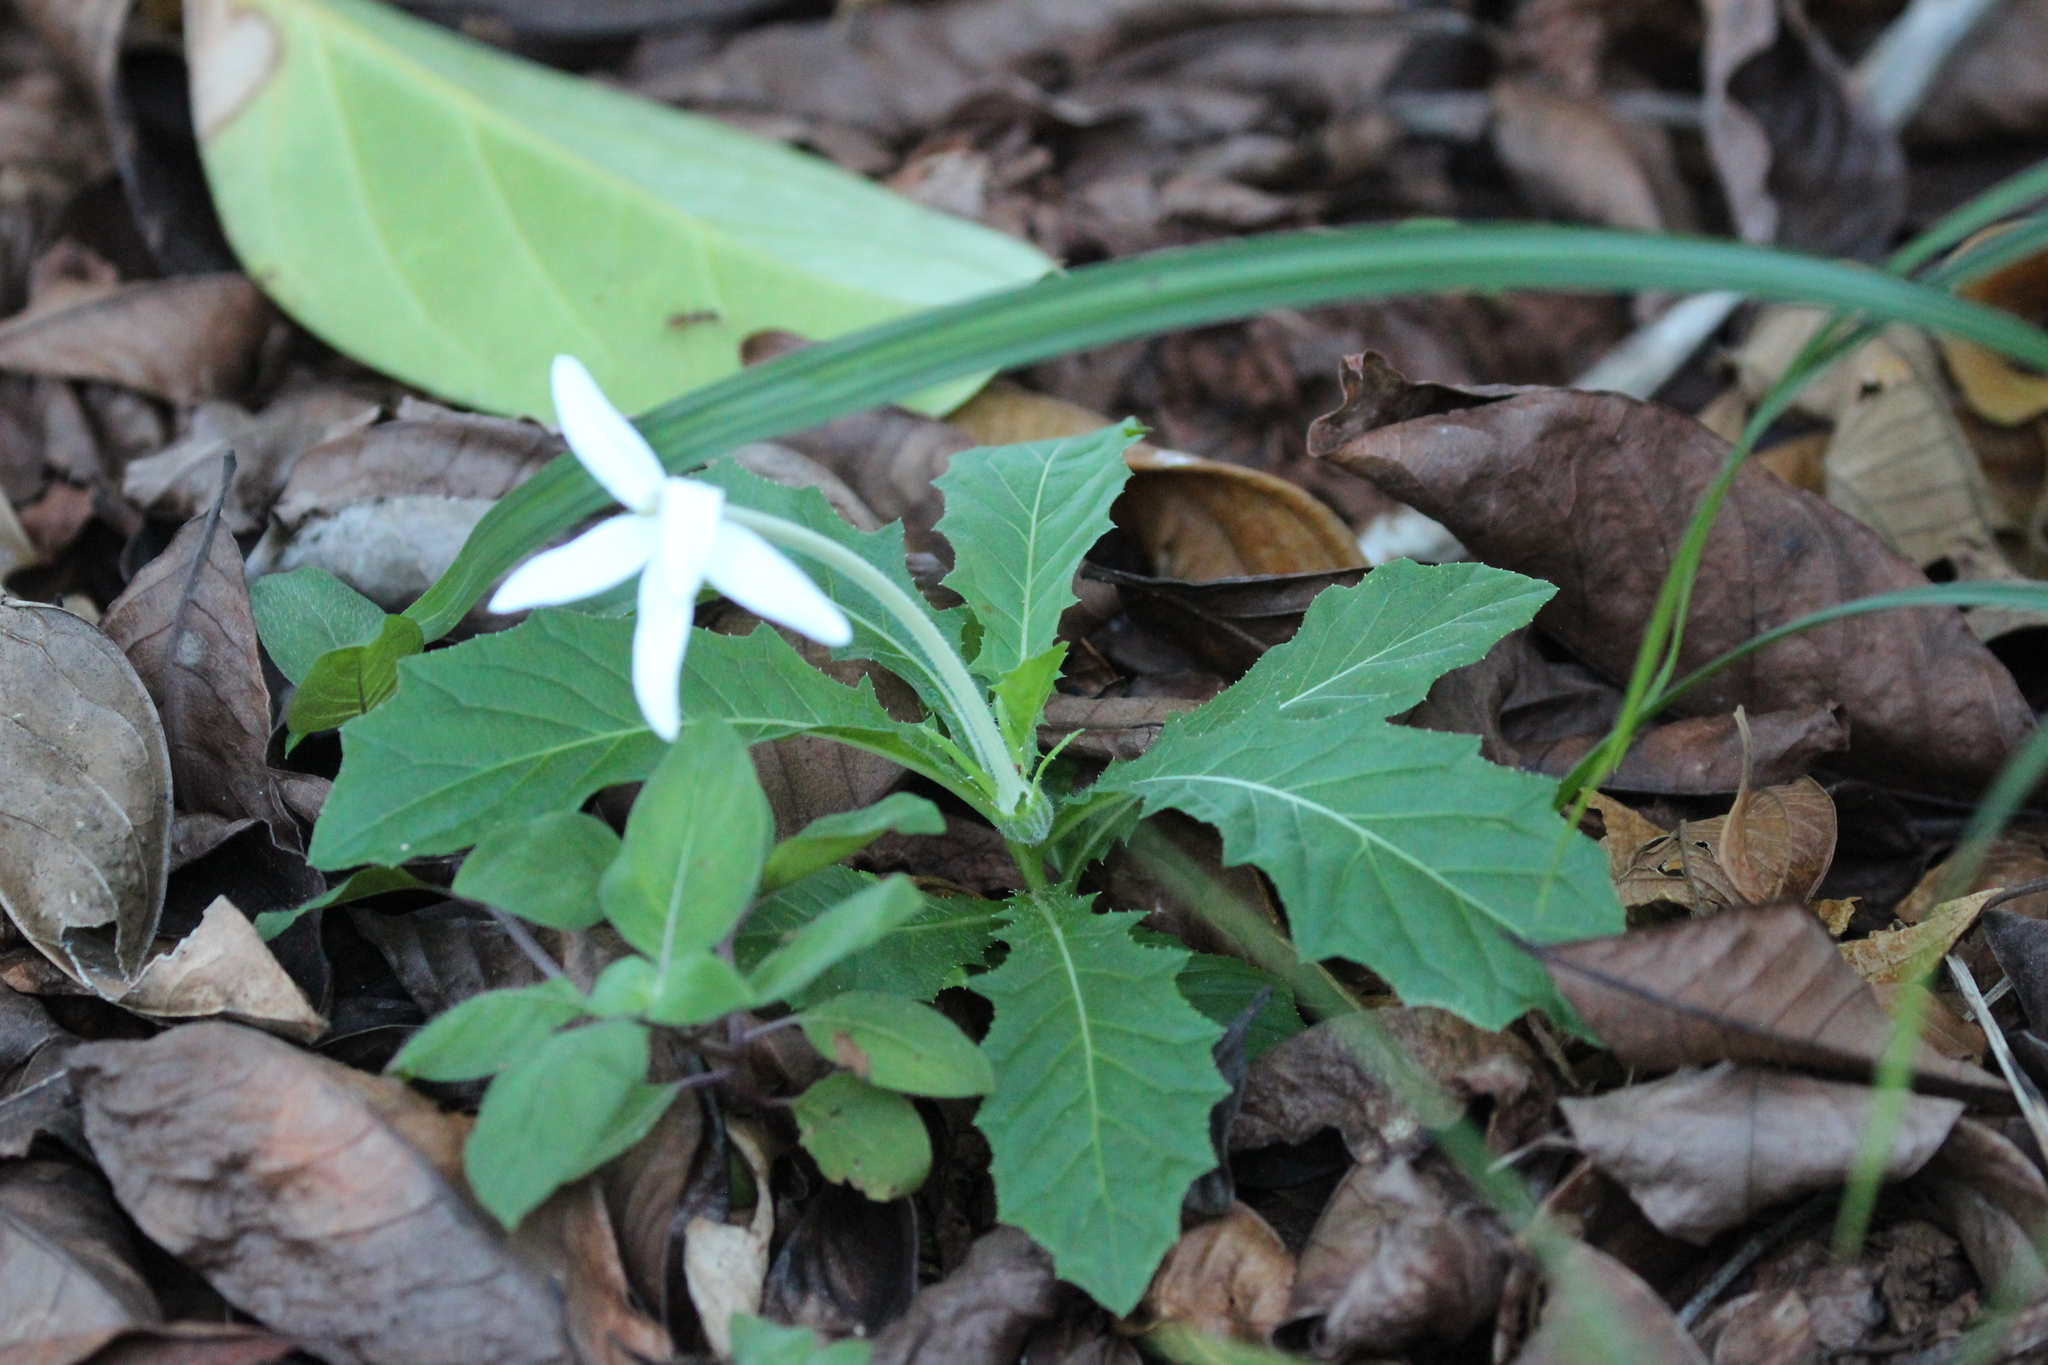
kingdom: Plantae
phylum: Tracheophyta
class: Magnoliopsida
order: Asterales
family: Campanulaceae
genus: Hippobroma
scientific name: Hippobroma longiflora
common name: Madamfate
